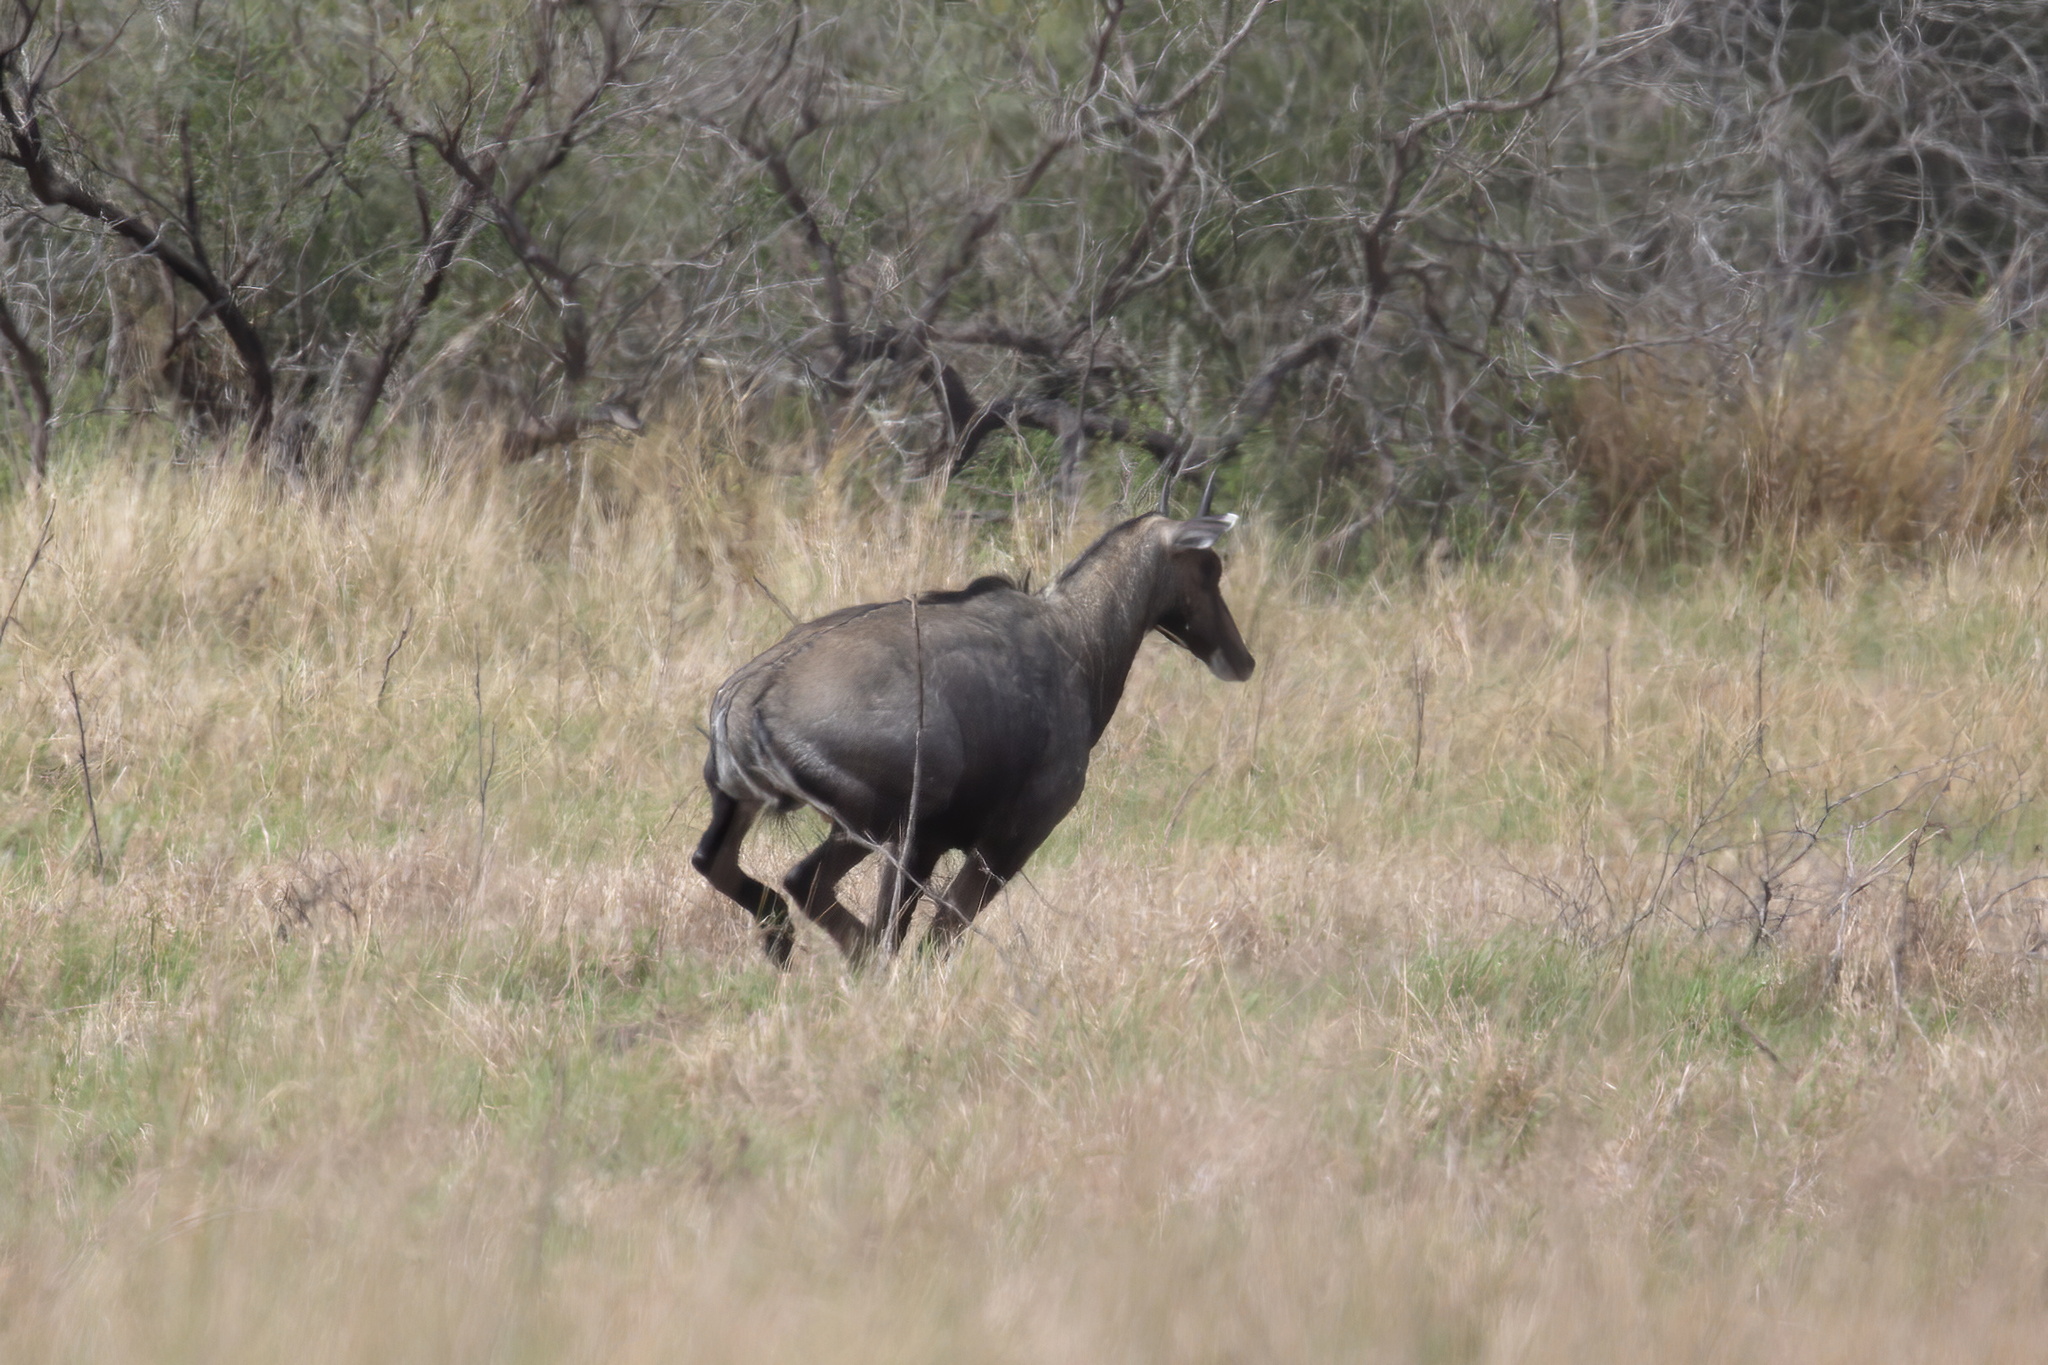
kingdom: Animalia
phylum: Chordata
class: Mammalia
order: Artiodactyla
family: Bovidae
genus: Boselaphus
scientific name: Boselaphus tragocamelus
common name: Nilgai
